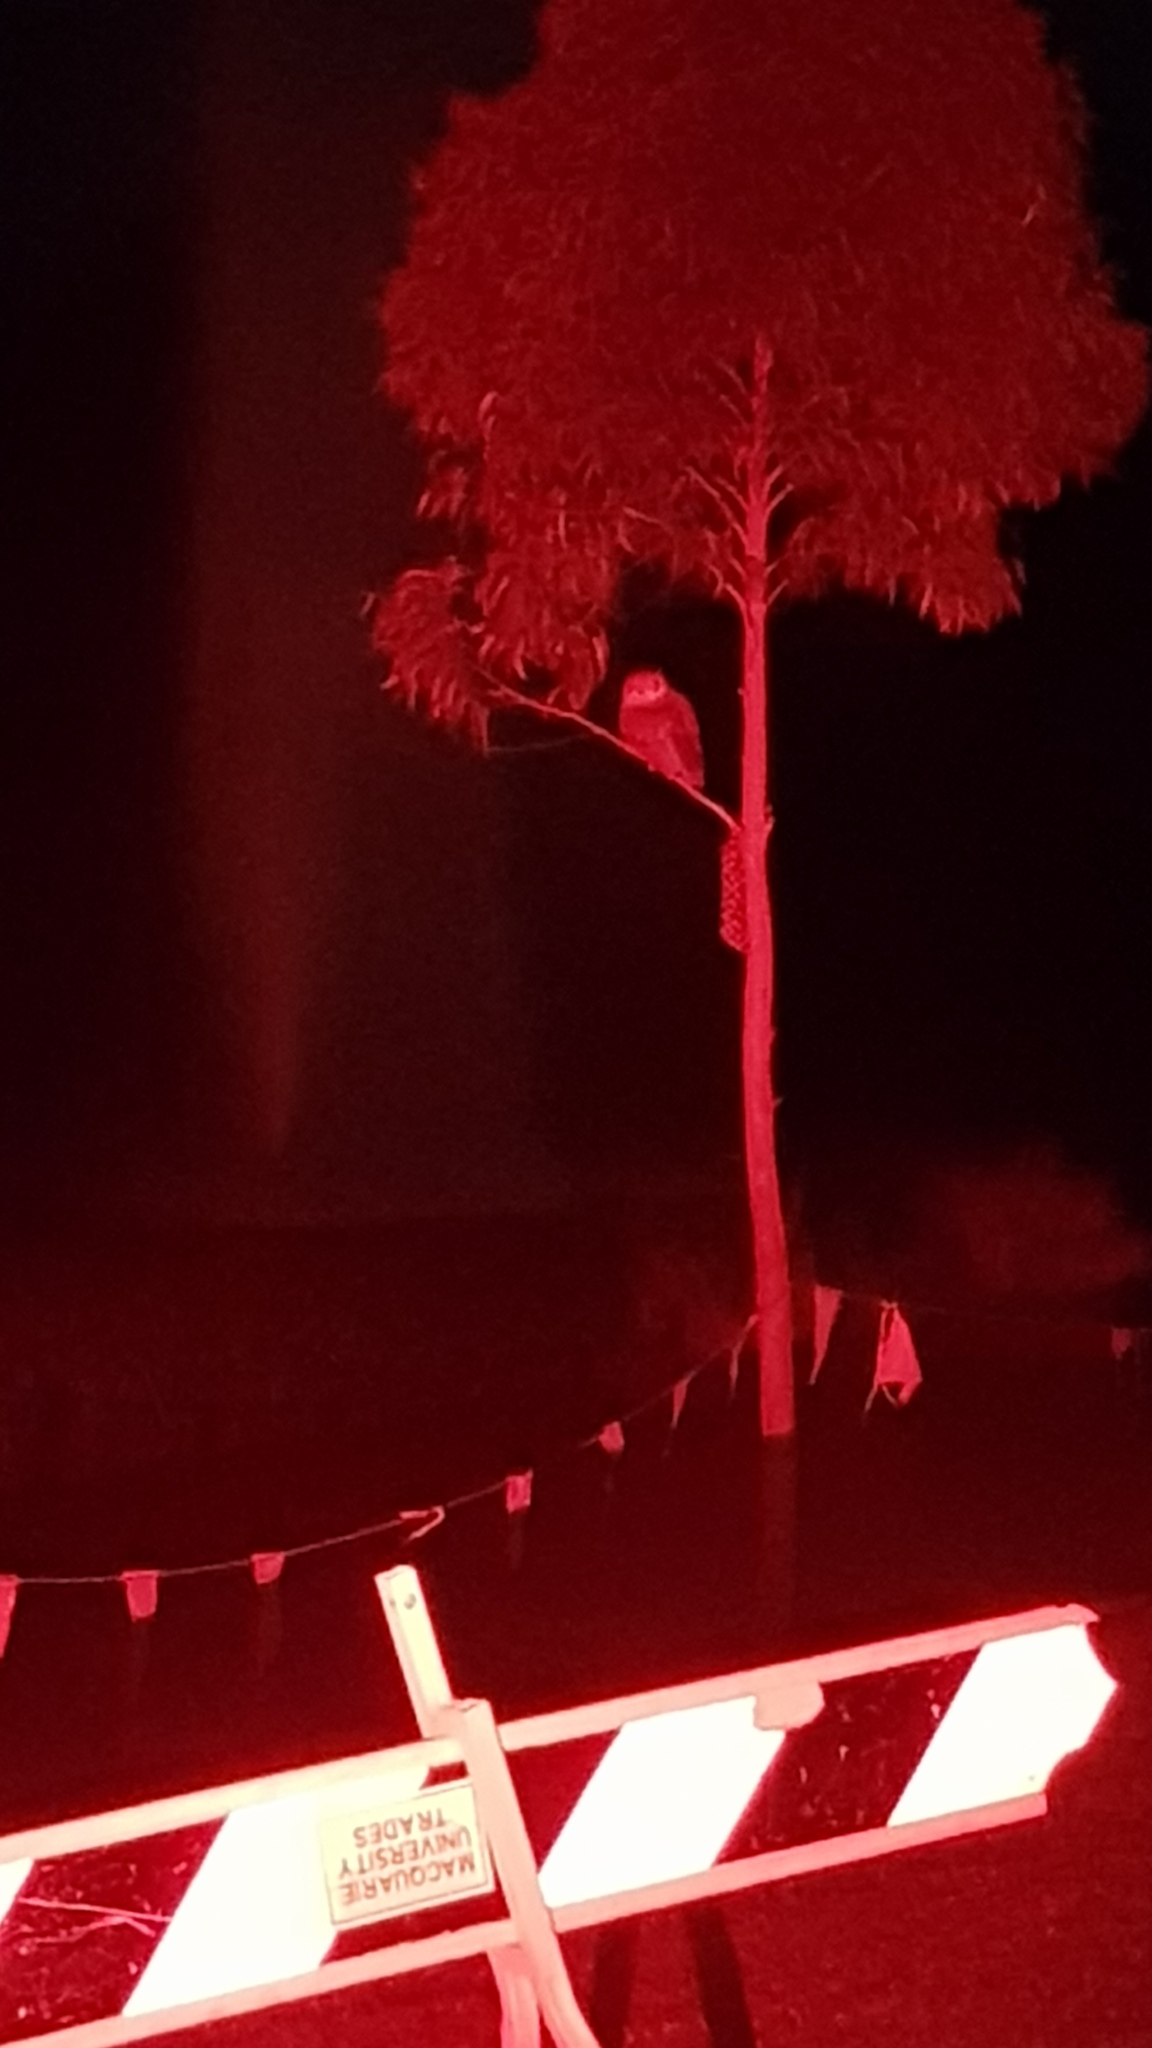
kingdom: Animalia
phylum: Chordata
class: Aves
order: Strigiformes
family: Strigidae
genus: Ninox
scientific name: Ninox boobook
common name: Southern boobook
